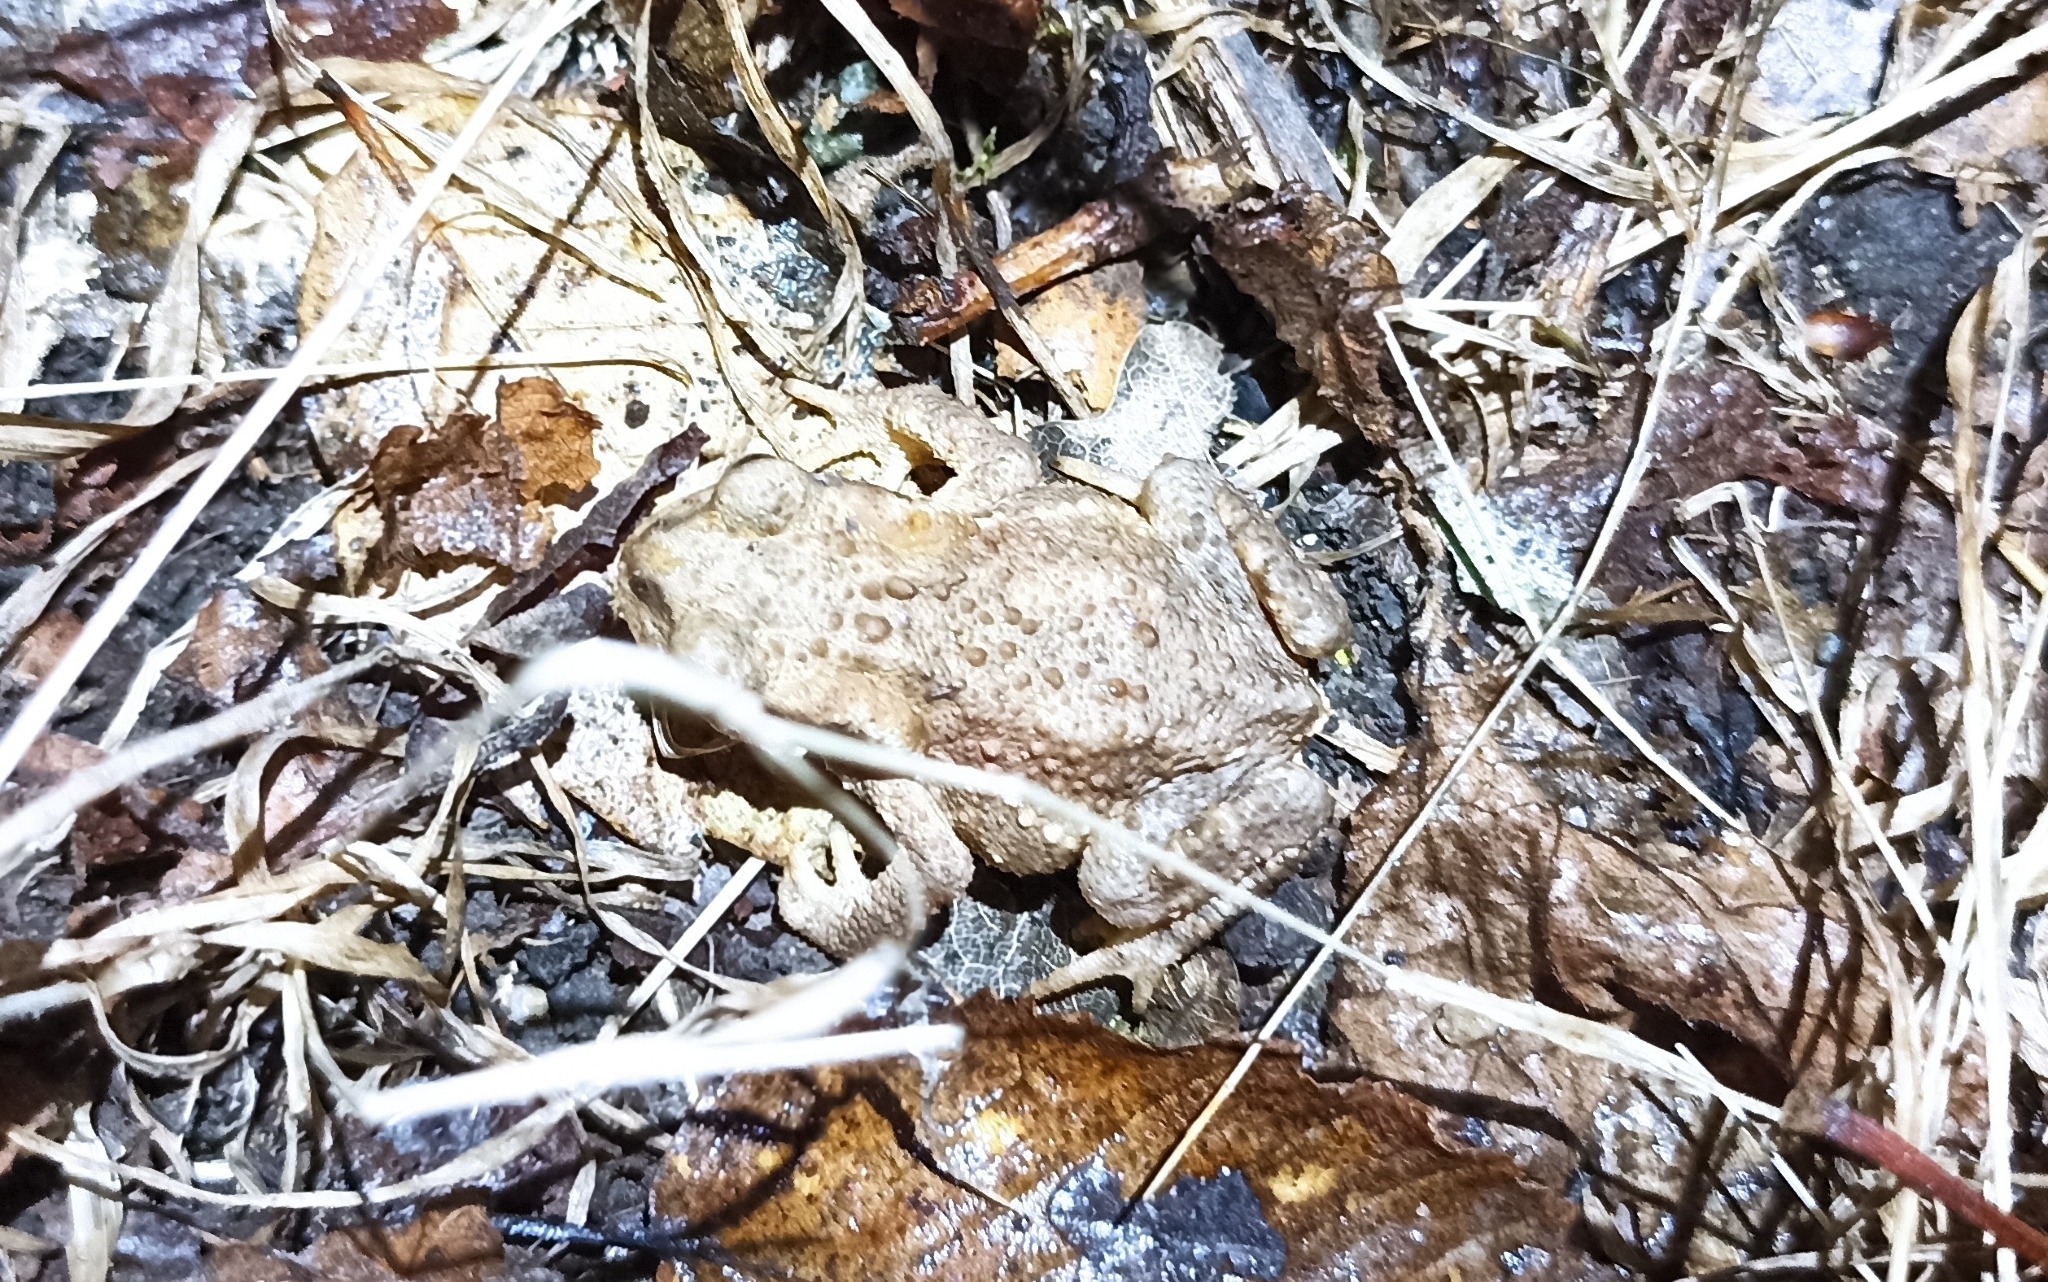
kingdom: Animalia
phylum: Chordata
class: Amphibia
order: Anura
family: Bufonidae
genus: Bufo
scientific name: Bufo spinosus
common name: Western common toad
